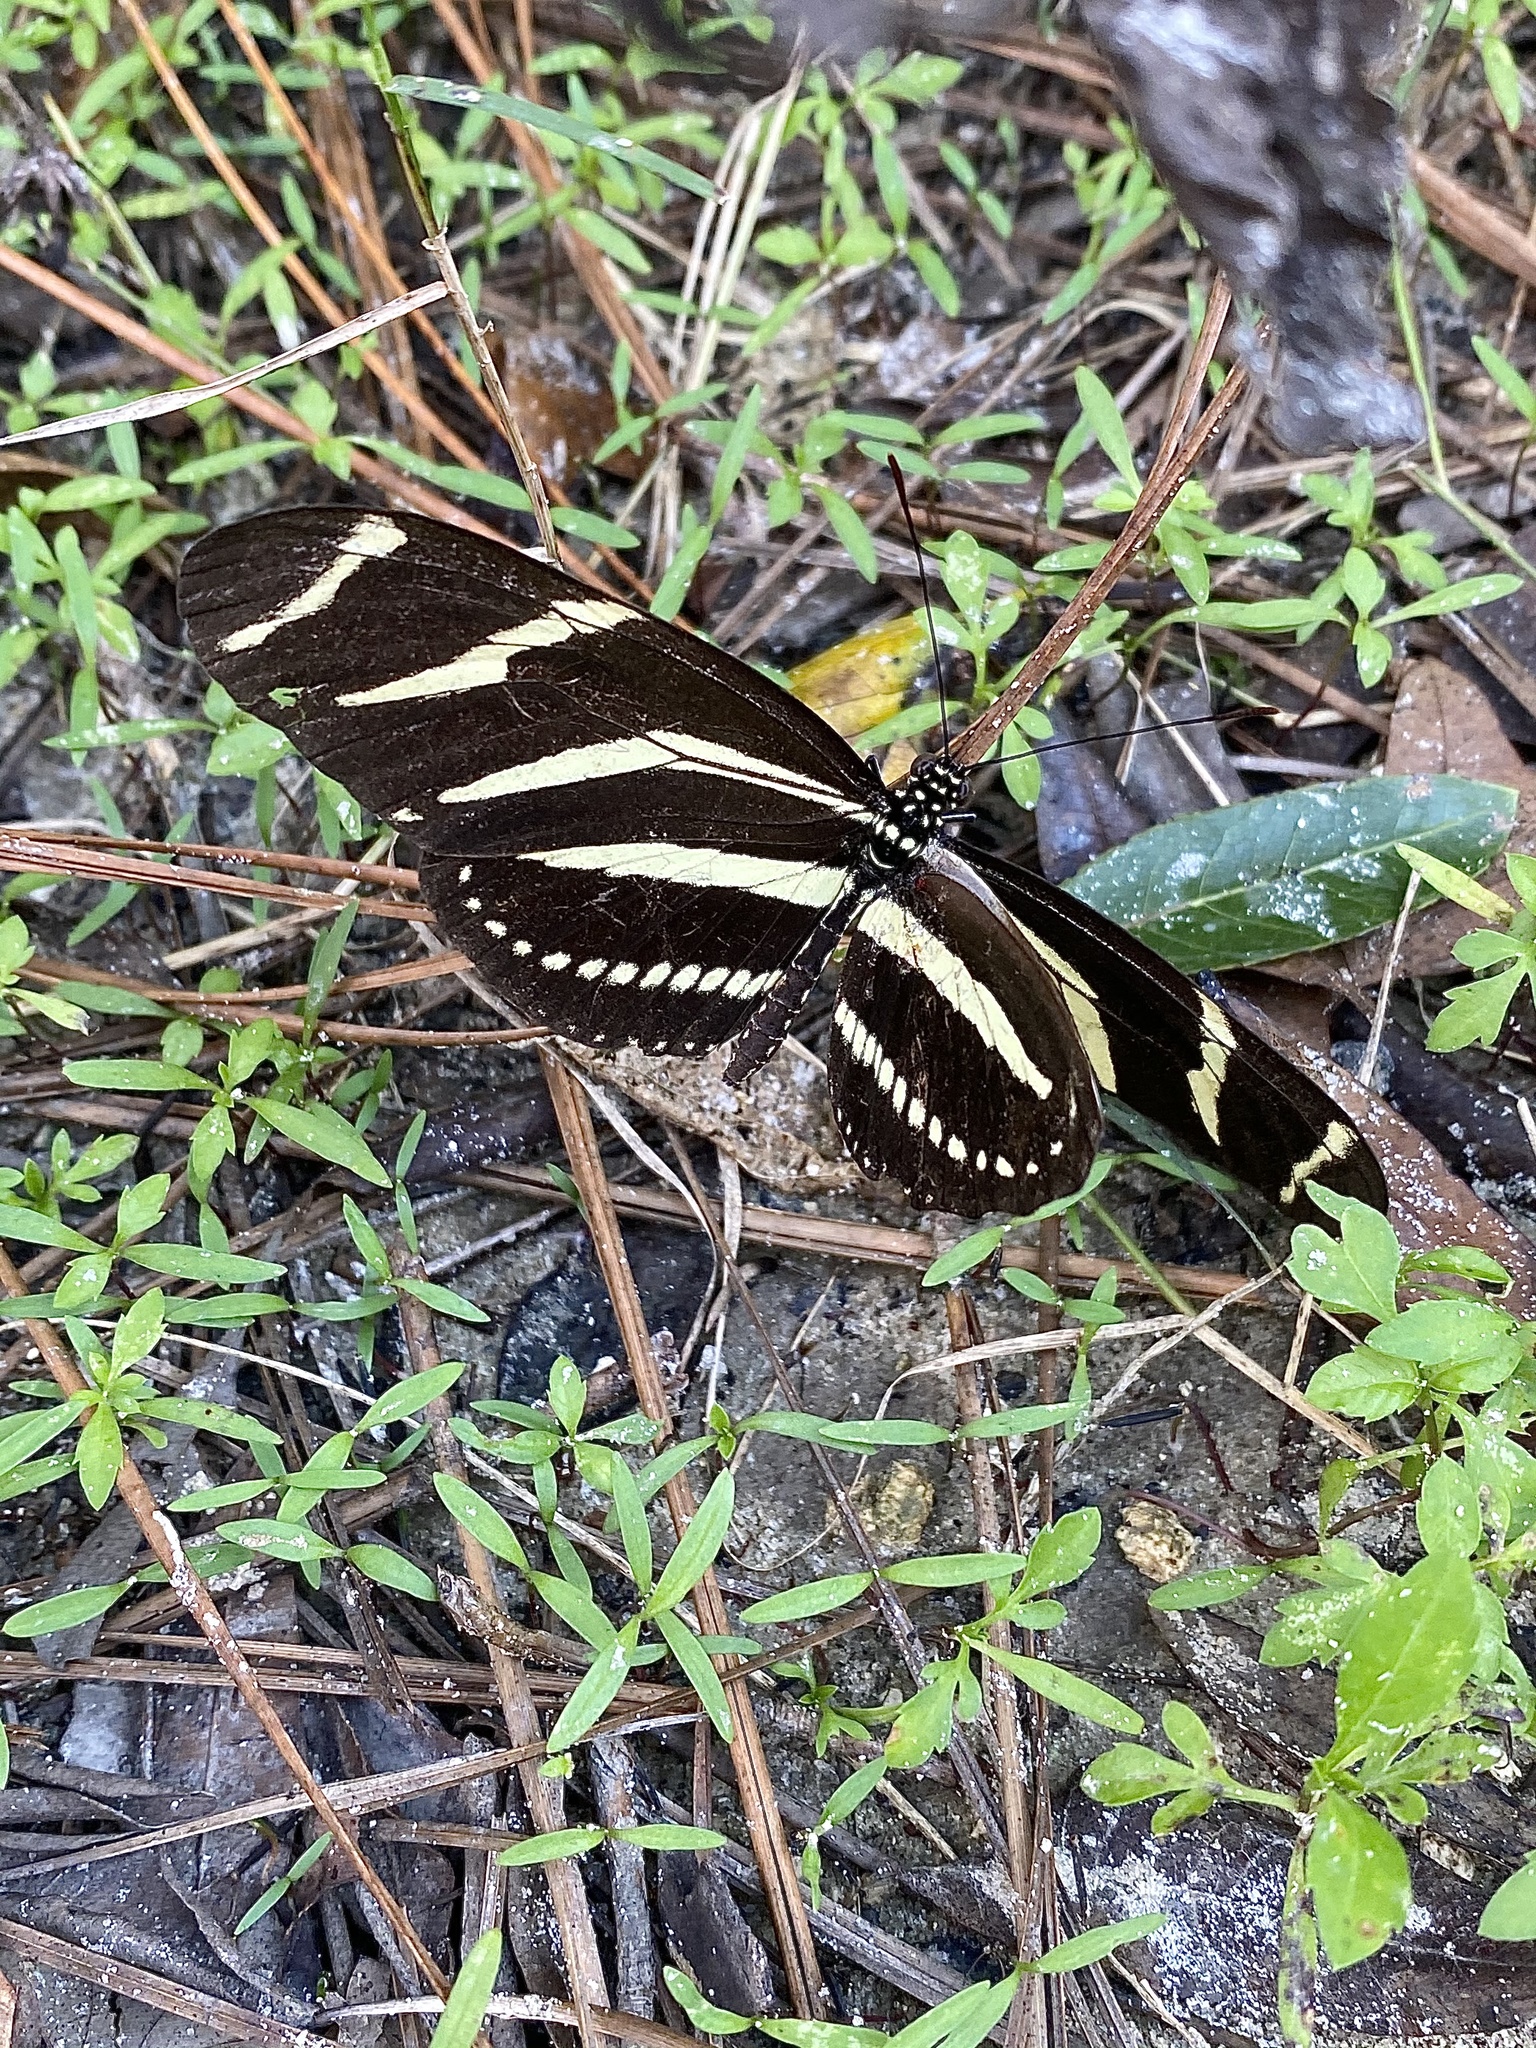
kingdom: Animalia
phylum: Arthropoda
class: Insecta
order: Lepidoptera
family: Nymphalidae
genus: Heliconius
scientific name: Heliconius charithonia
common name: Zebra long wing
